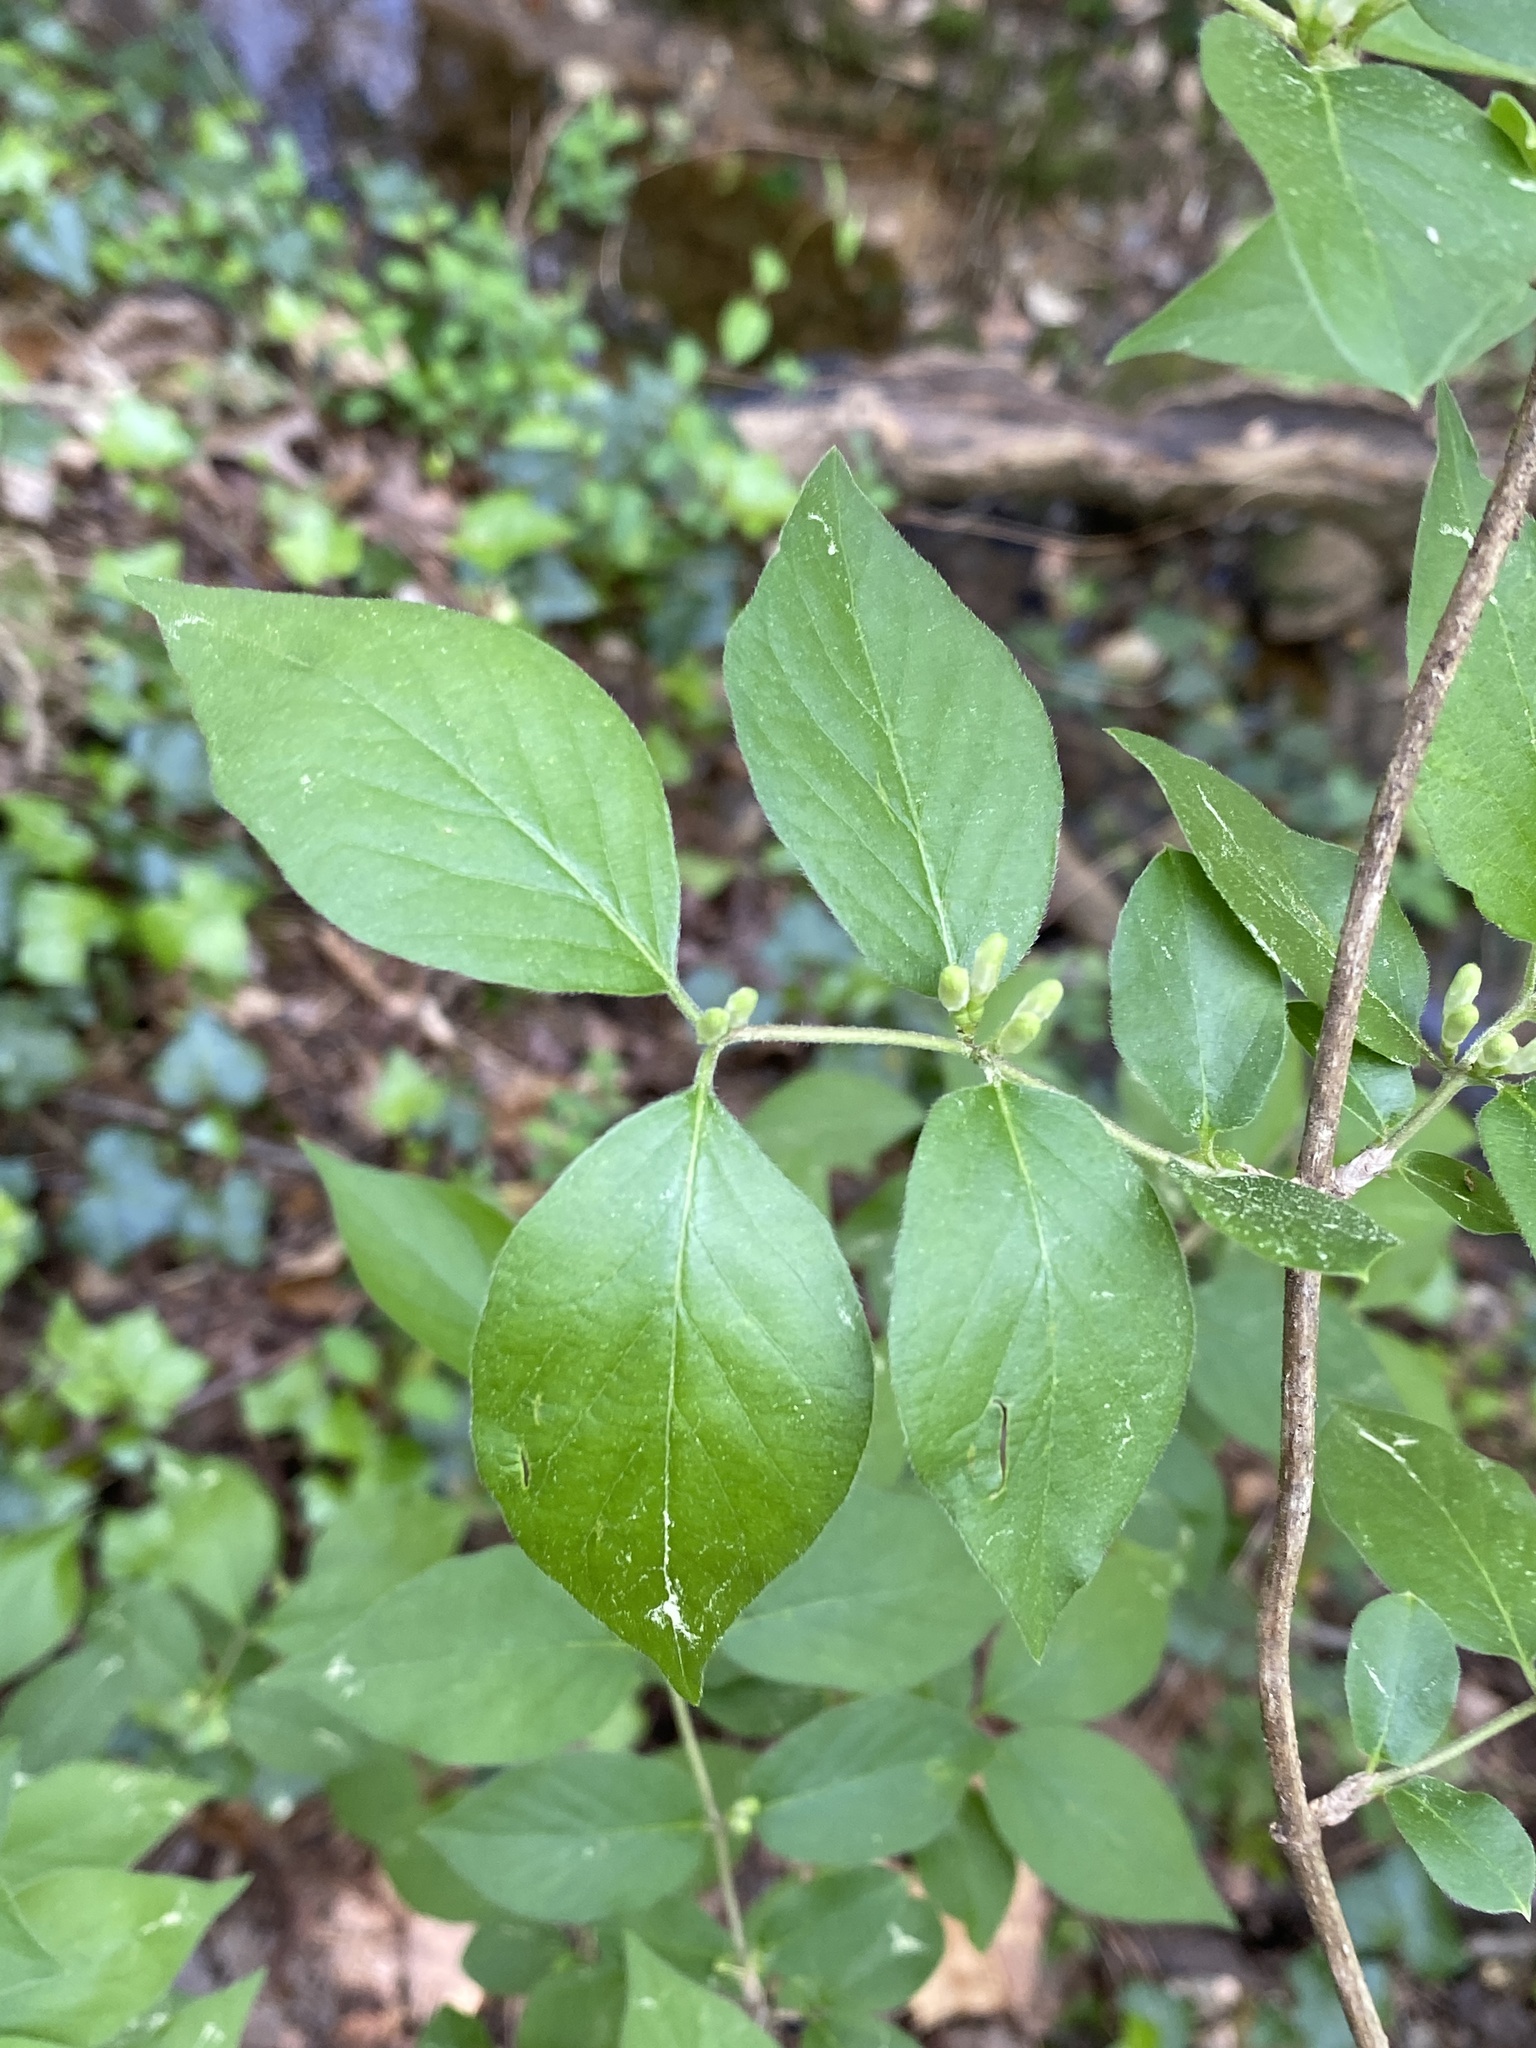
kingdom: Plantae
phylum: Tracheophyta
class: Magnoliopsida
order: Dipsacales
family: Caprifoliaceae
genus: Lonicera
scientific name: Lonicera maackii
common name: Amur honeysuckle
